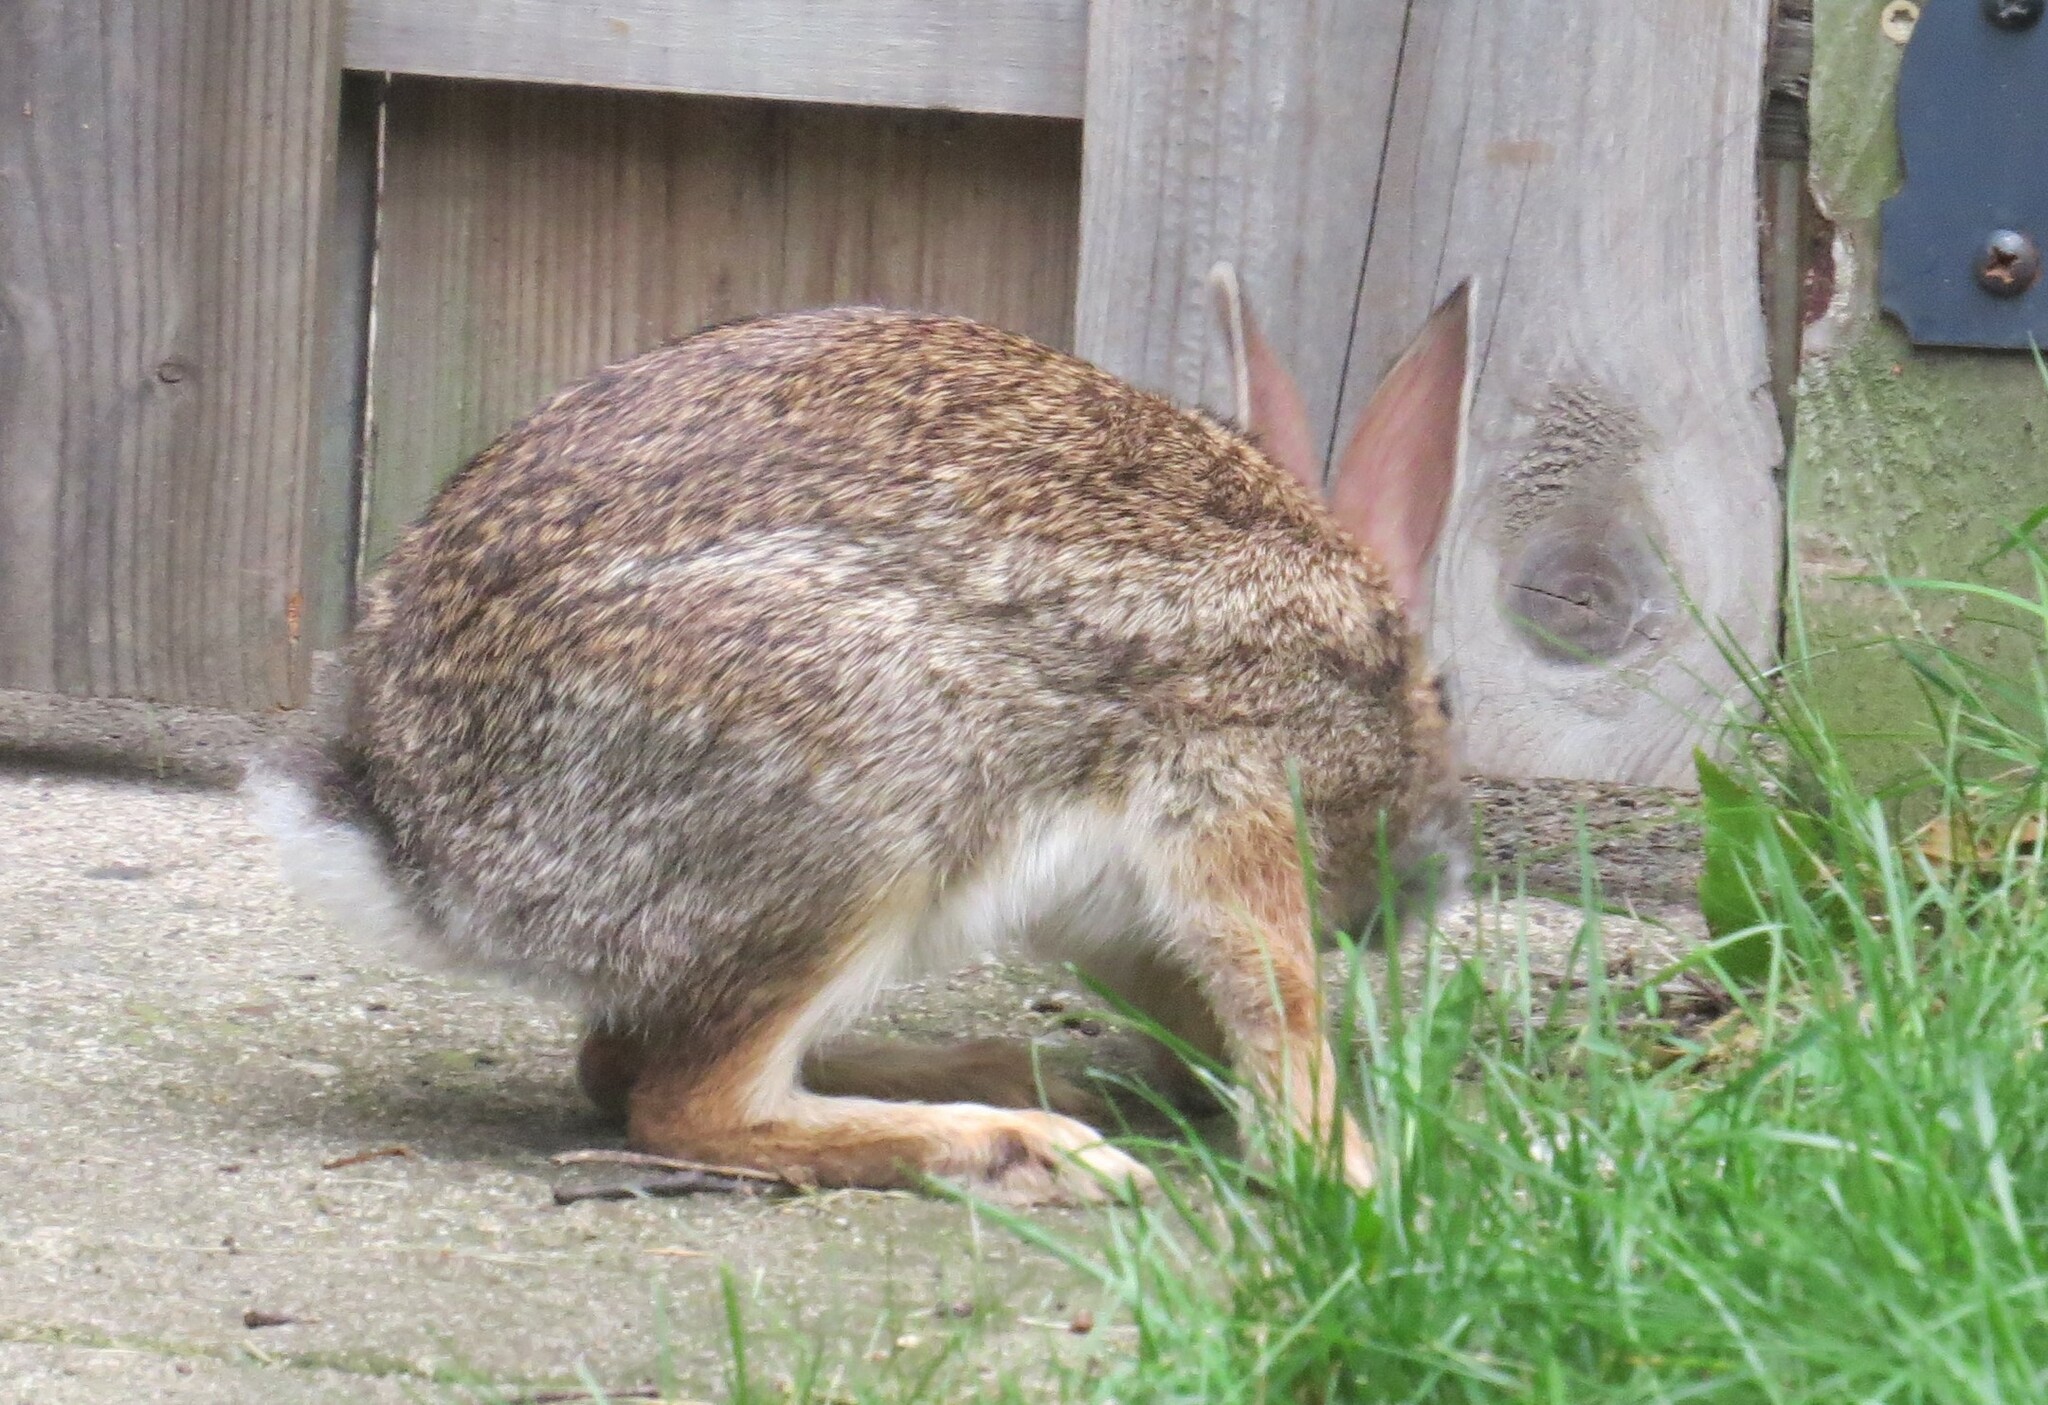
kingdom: Animalia
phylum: Chordata
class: Mammalia
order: Lagomorpha
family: Leporidae
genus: Sylvilagus
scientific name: Sylvilagus floridanus
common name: Eastern cottontail
